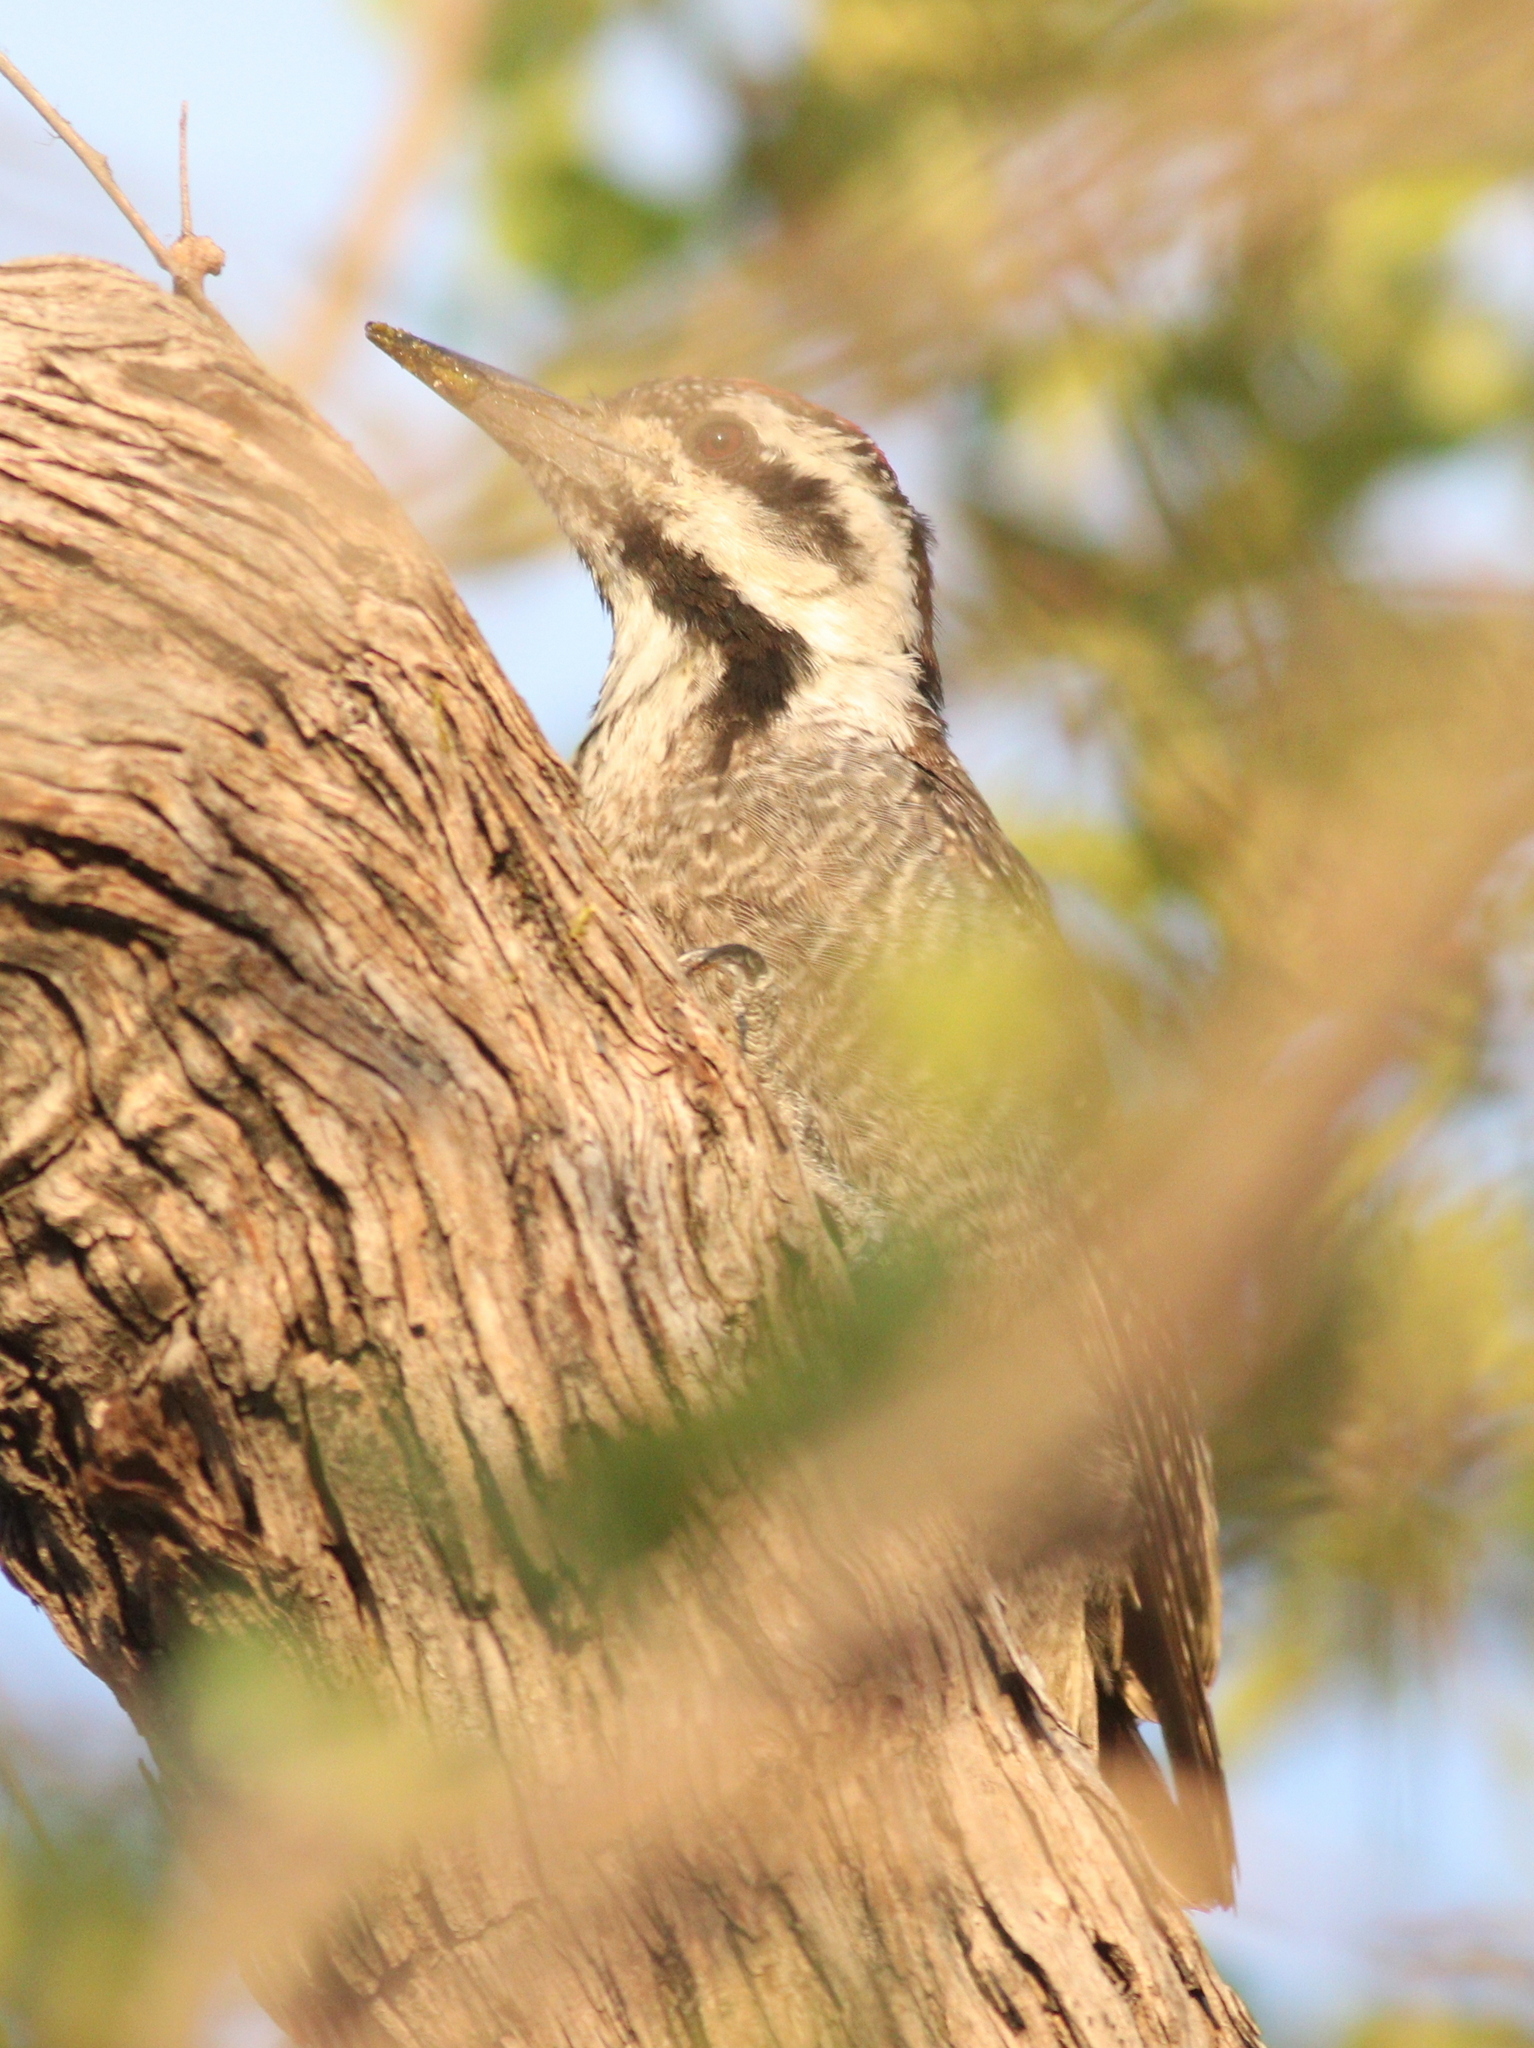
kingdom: Animalia
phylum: Chordata
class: Aves
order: Piciformes
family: Picidae
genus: Chloropicus
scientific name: Chloropicus namaquus
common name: Bearded woodpecker
